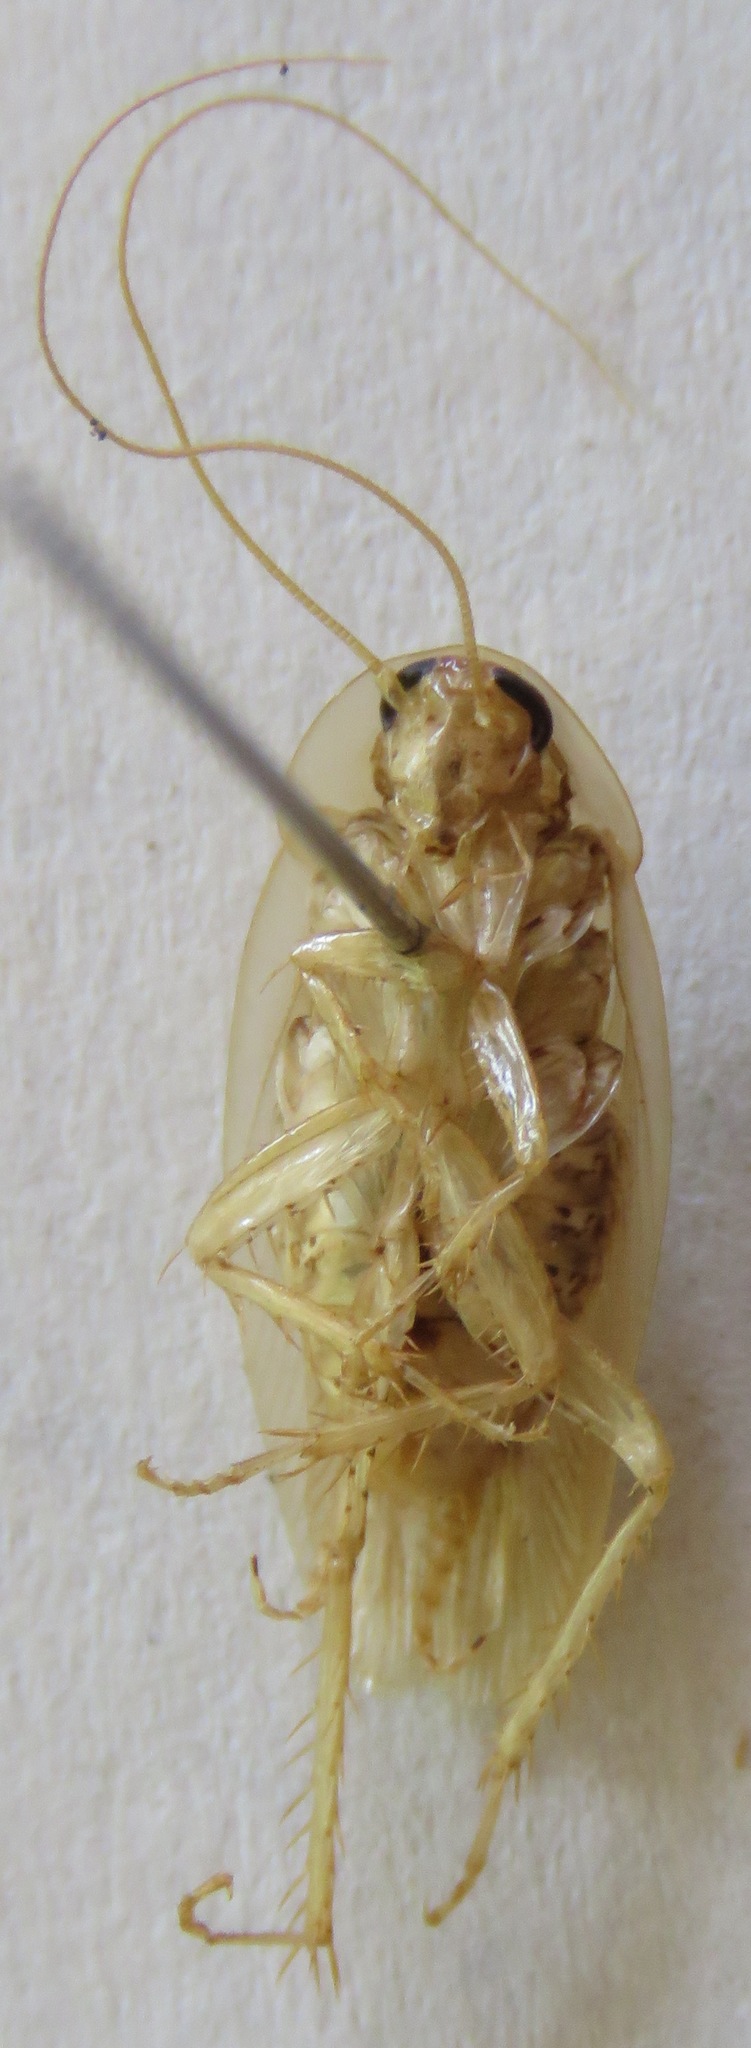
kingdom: Animalia
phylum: Arthropoda
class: Insecta
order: Blattodea
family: Ectobiidae
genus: Nahublattella
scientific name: Nahublattella fraterna
